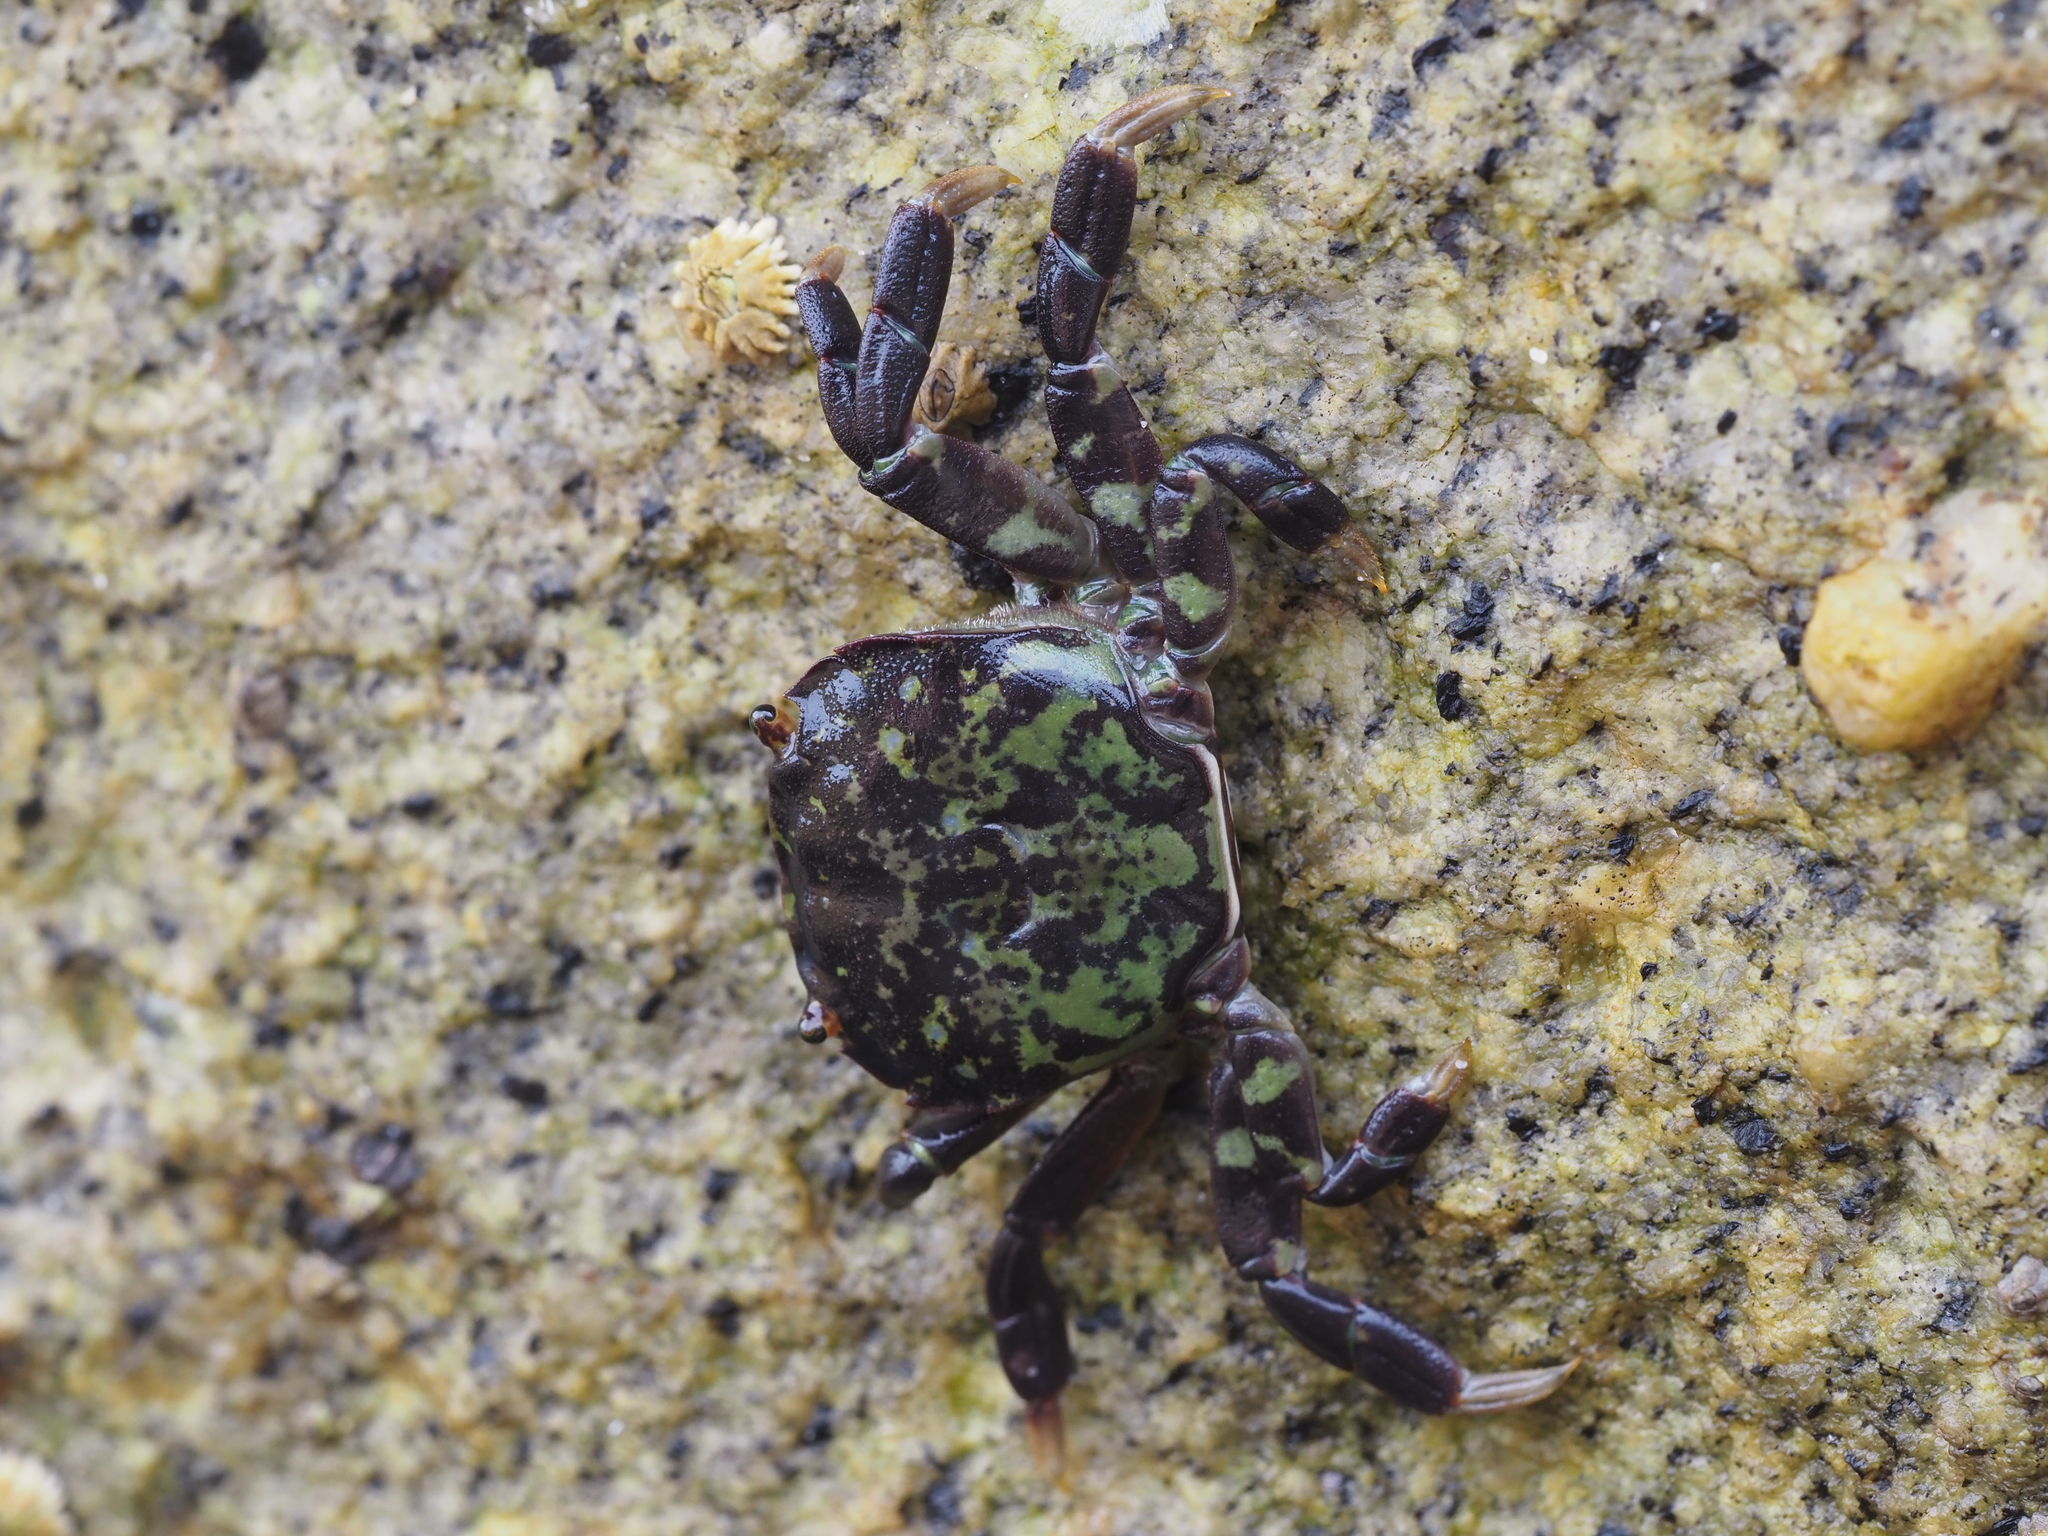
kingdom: Animalia
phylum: Arthropoda
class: Malacostraca
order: Decapoda
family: Varunidae
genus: Hemigrapsus
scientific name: Hemigrapsus nudus
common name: Purple shore crab
